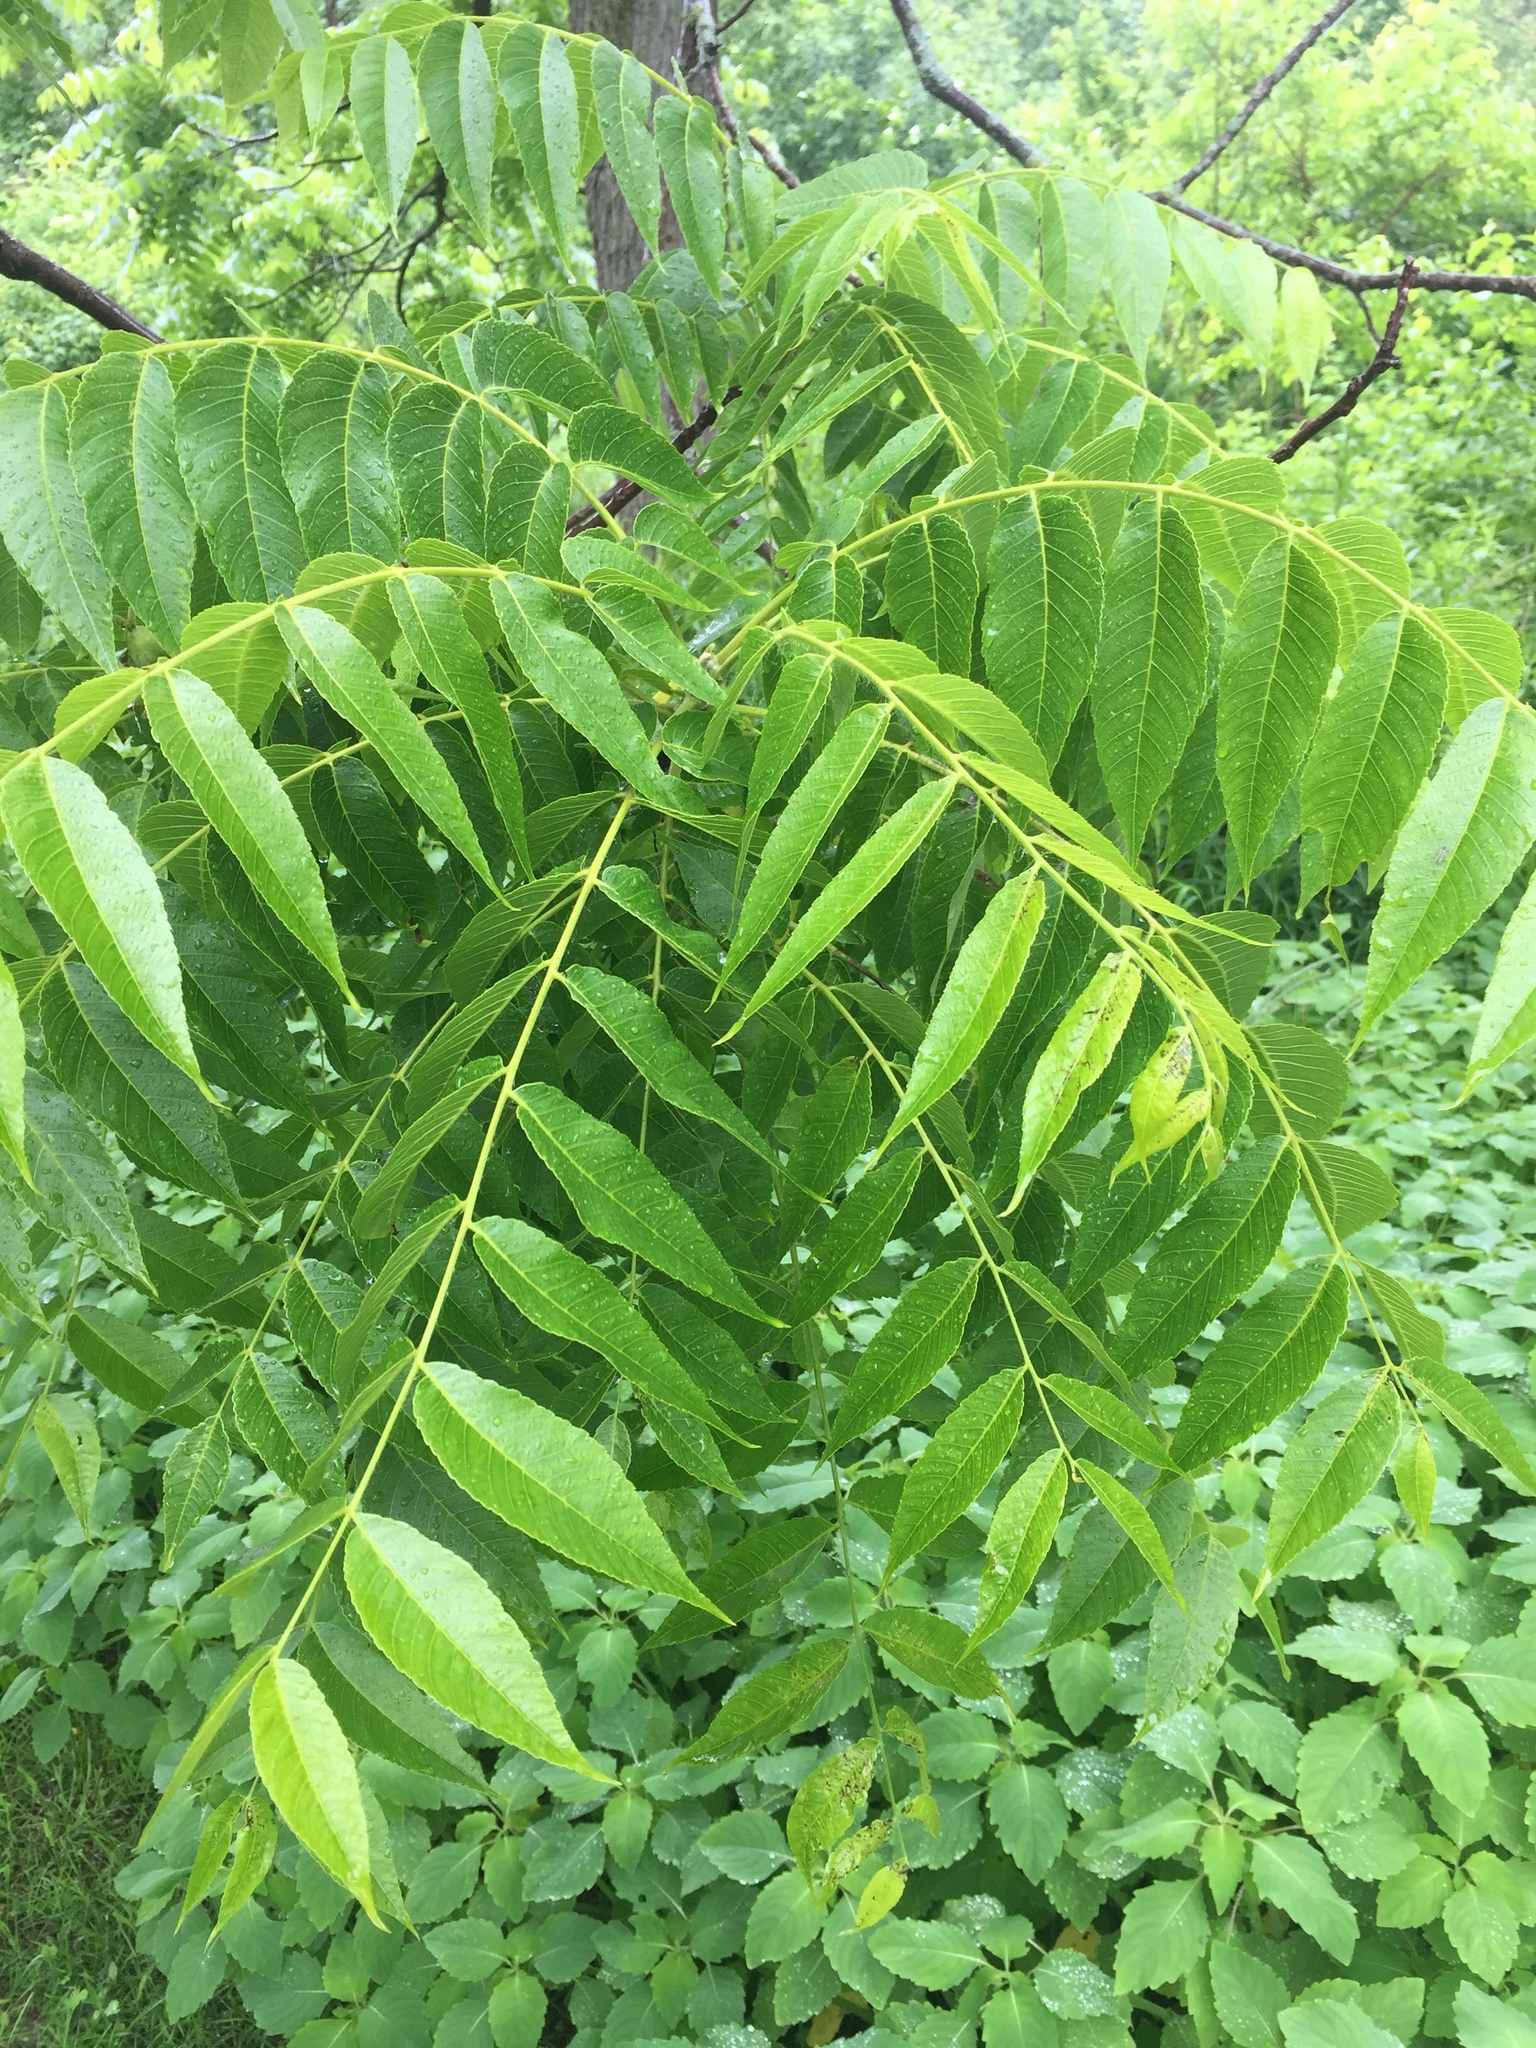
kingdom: Plantae
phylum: Tracheophyta
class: Magnoliopsida
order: Fagales
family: Juglandaceae
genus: Juglans
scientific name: Juglans nigra
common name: Black walnut
